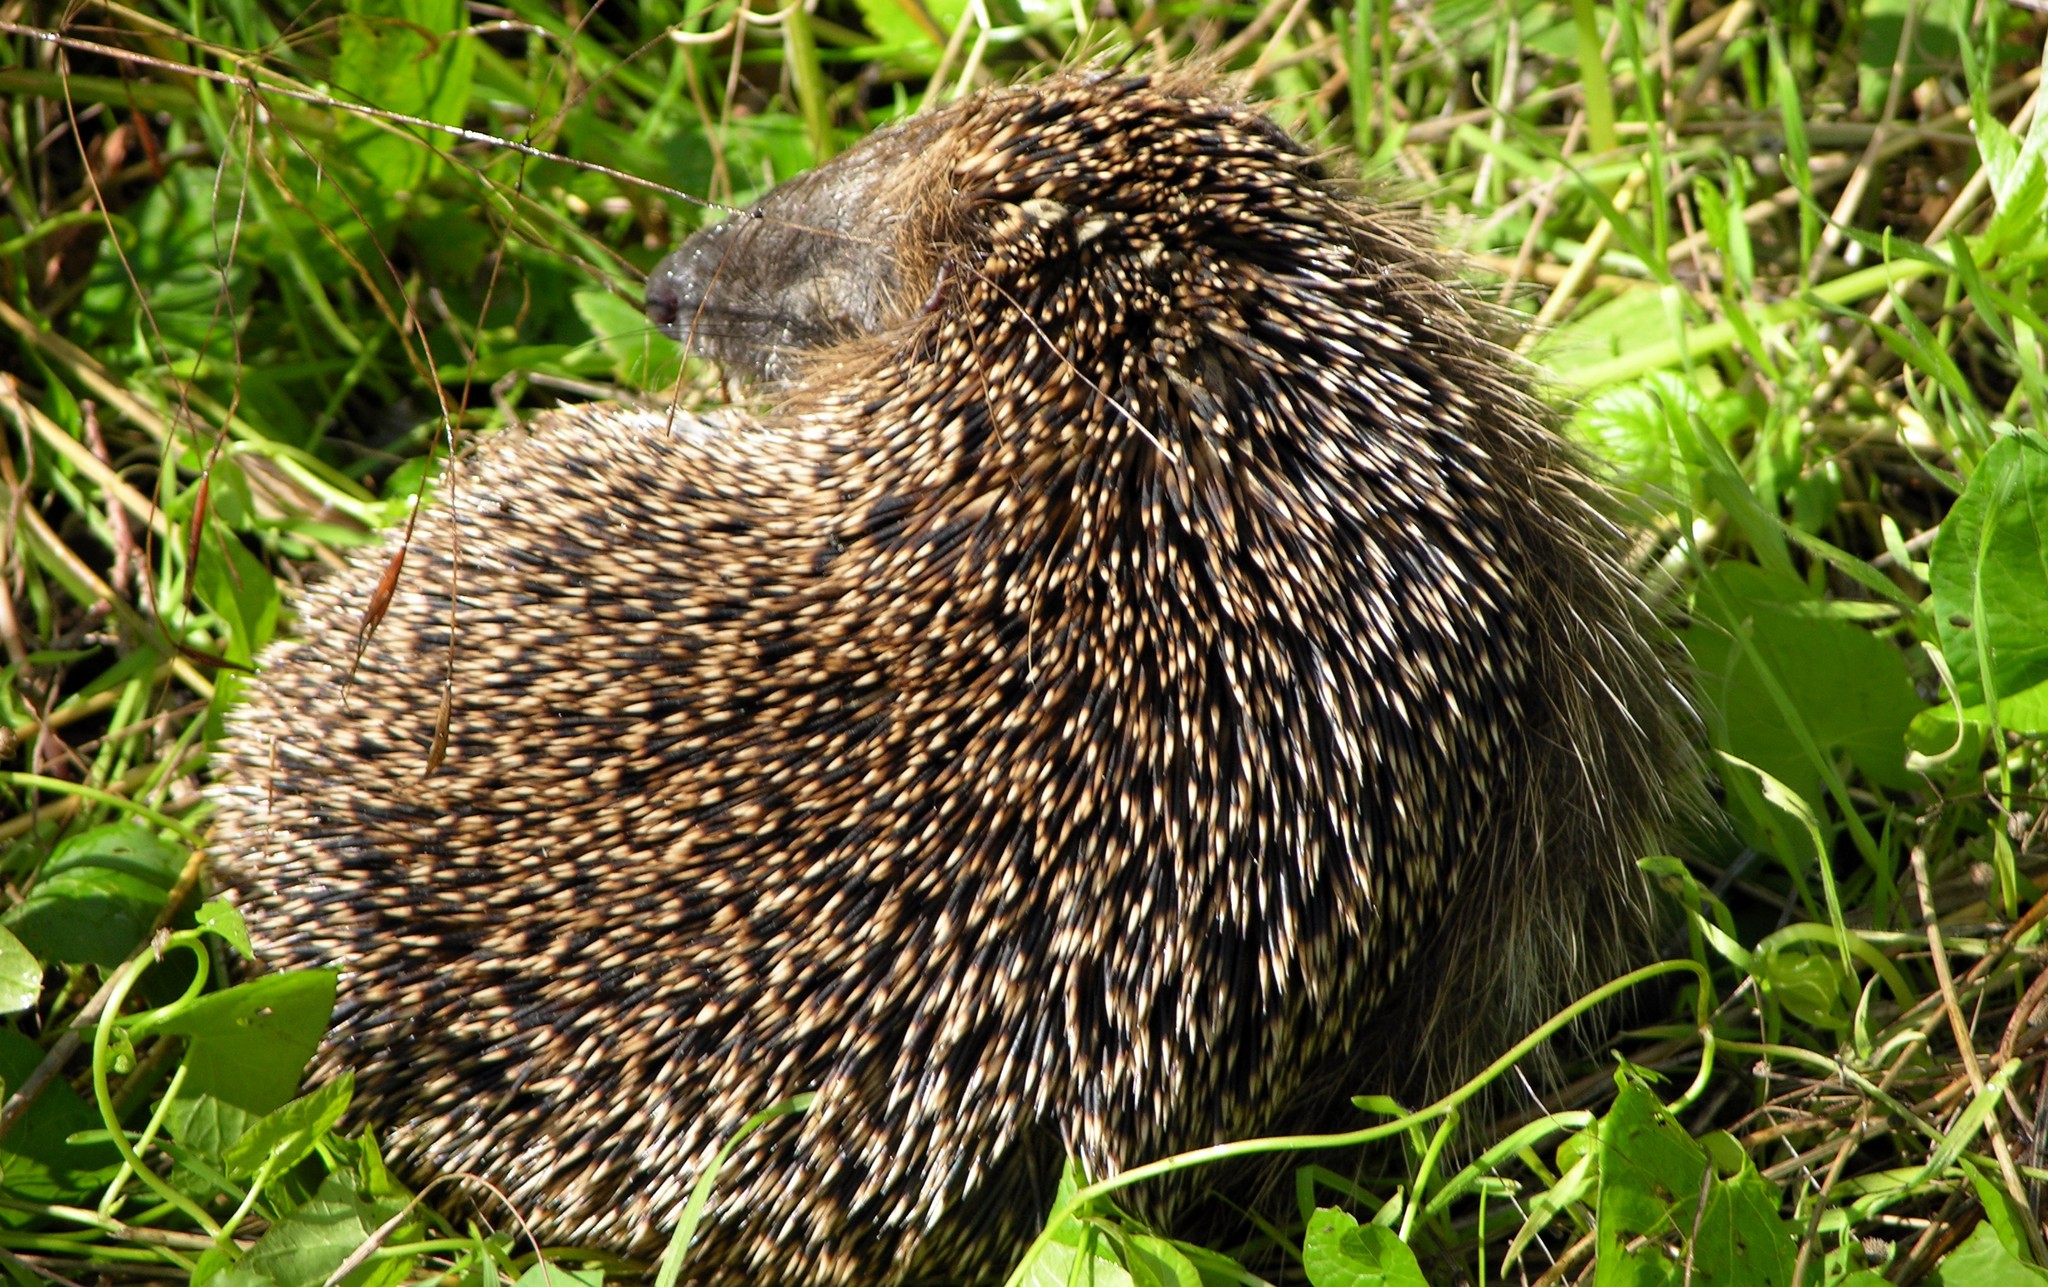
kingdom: Animalia
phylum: Chordata
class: Mammalia
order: Erinaceomorpha
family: Erinaceidae
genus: Erinaceus
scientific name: Erinaceus europaeus
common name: West european hedgehog
